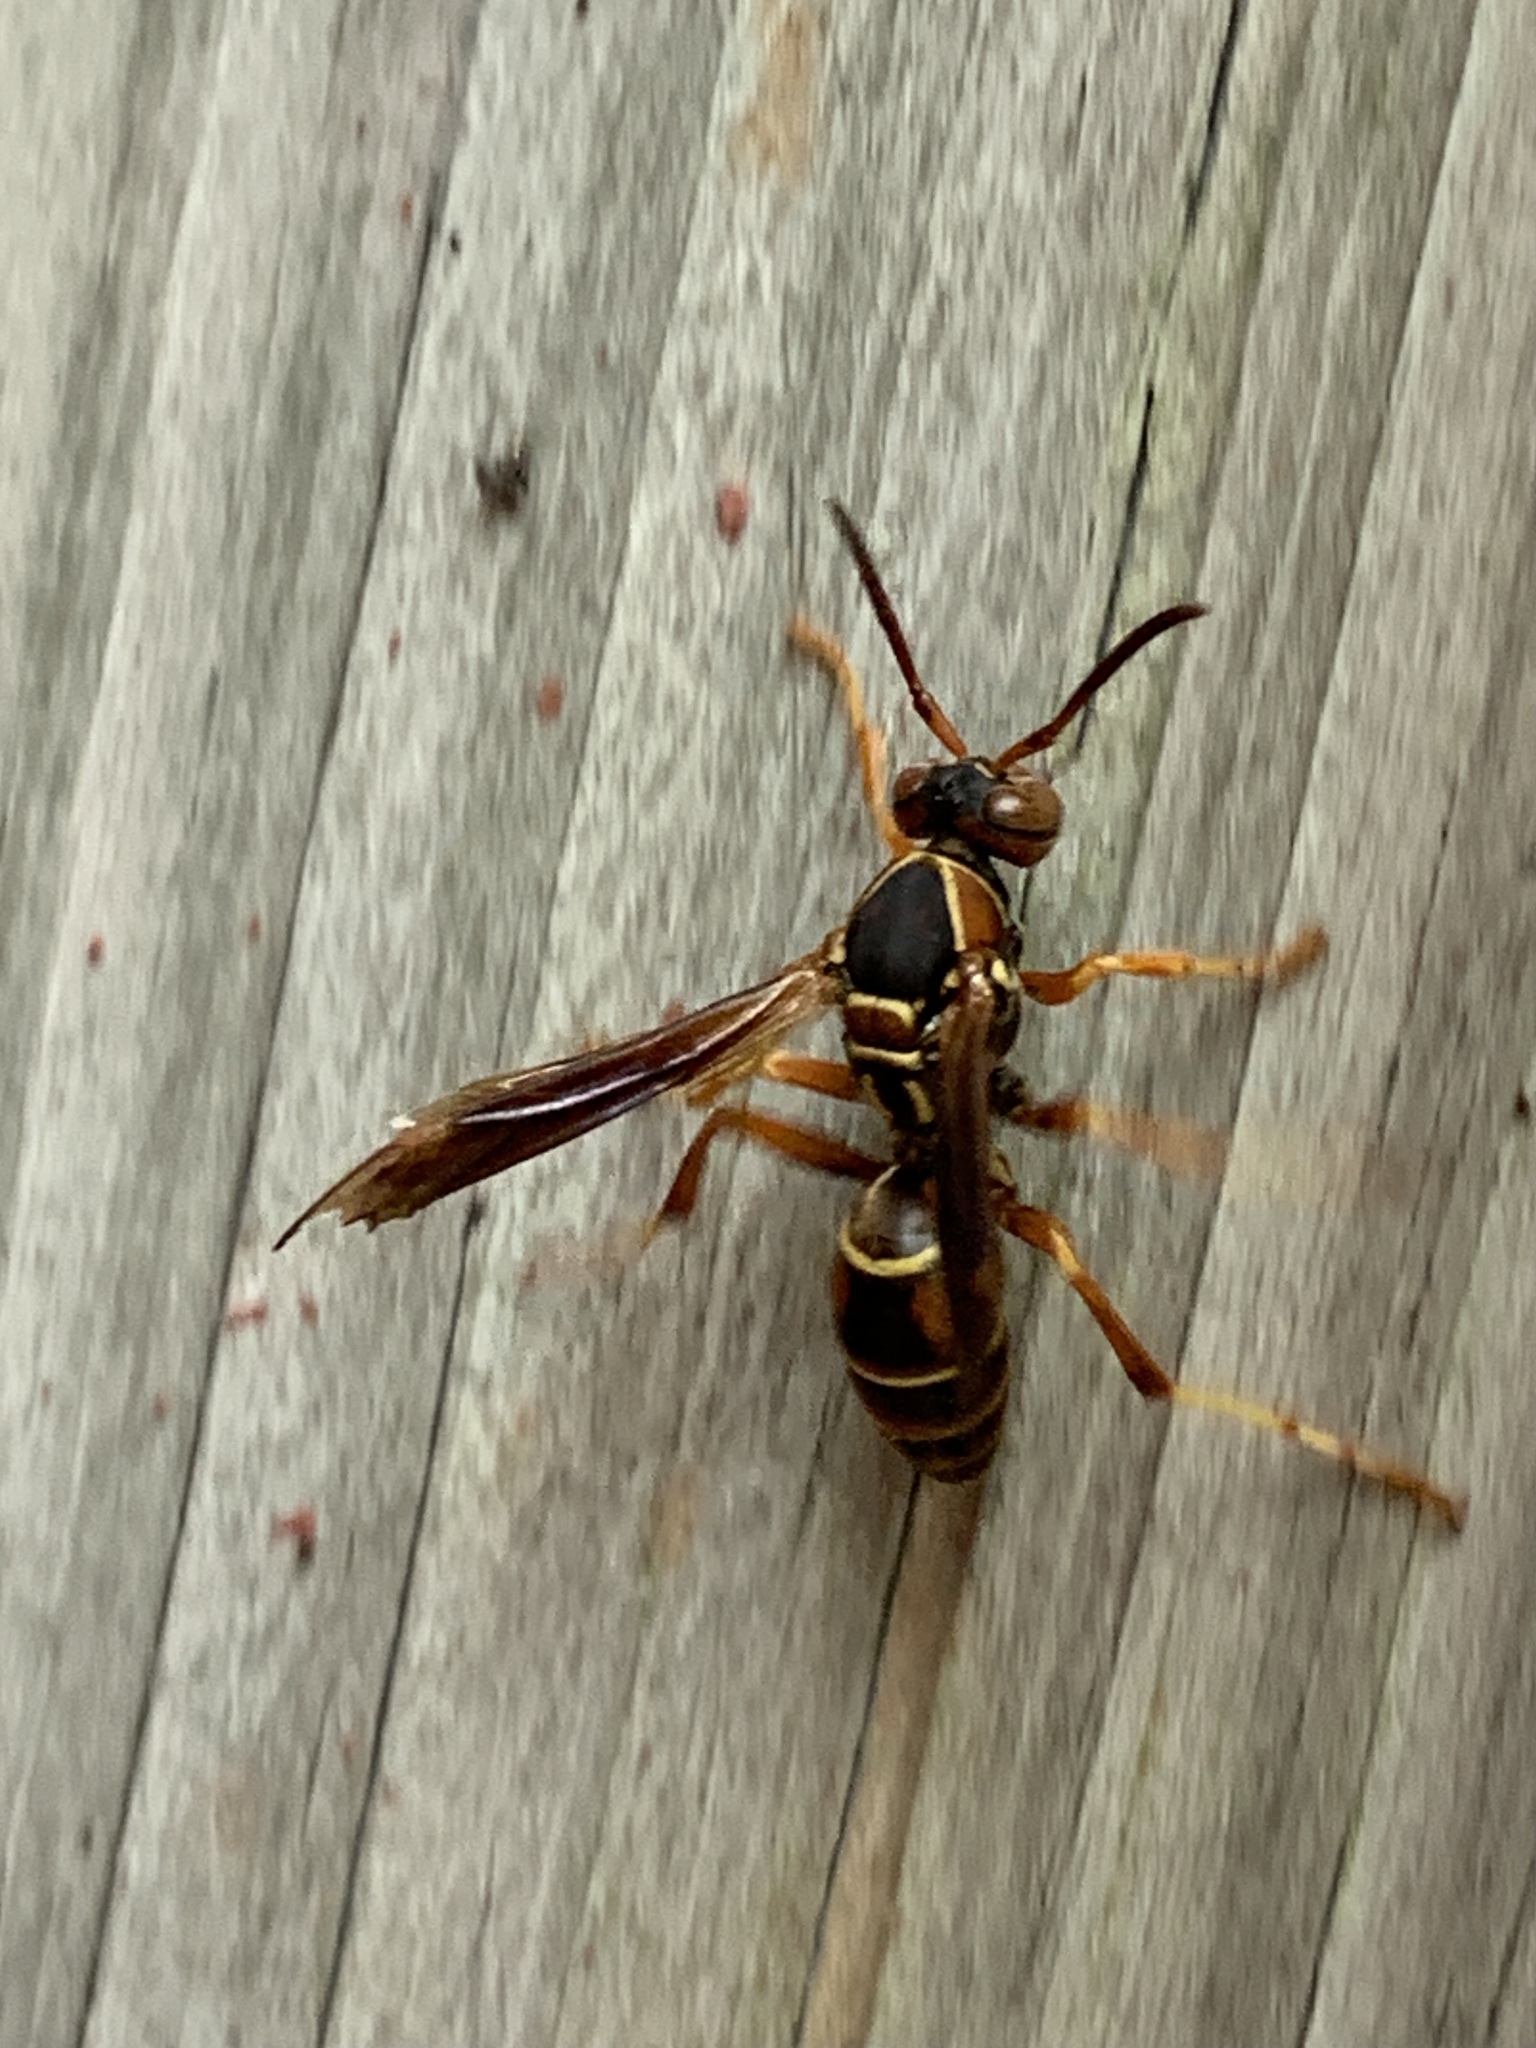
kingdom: Animalia
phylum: Arthropoda
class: Insecta
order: Hymenoptera
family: Eumenidae
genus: Polistes
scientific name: Polistes fuscatus
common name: Dark paper wasp
